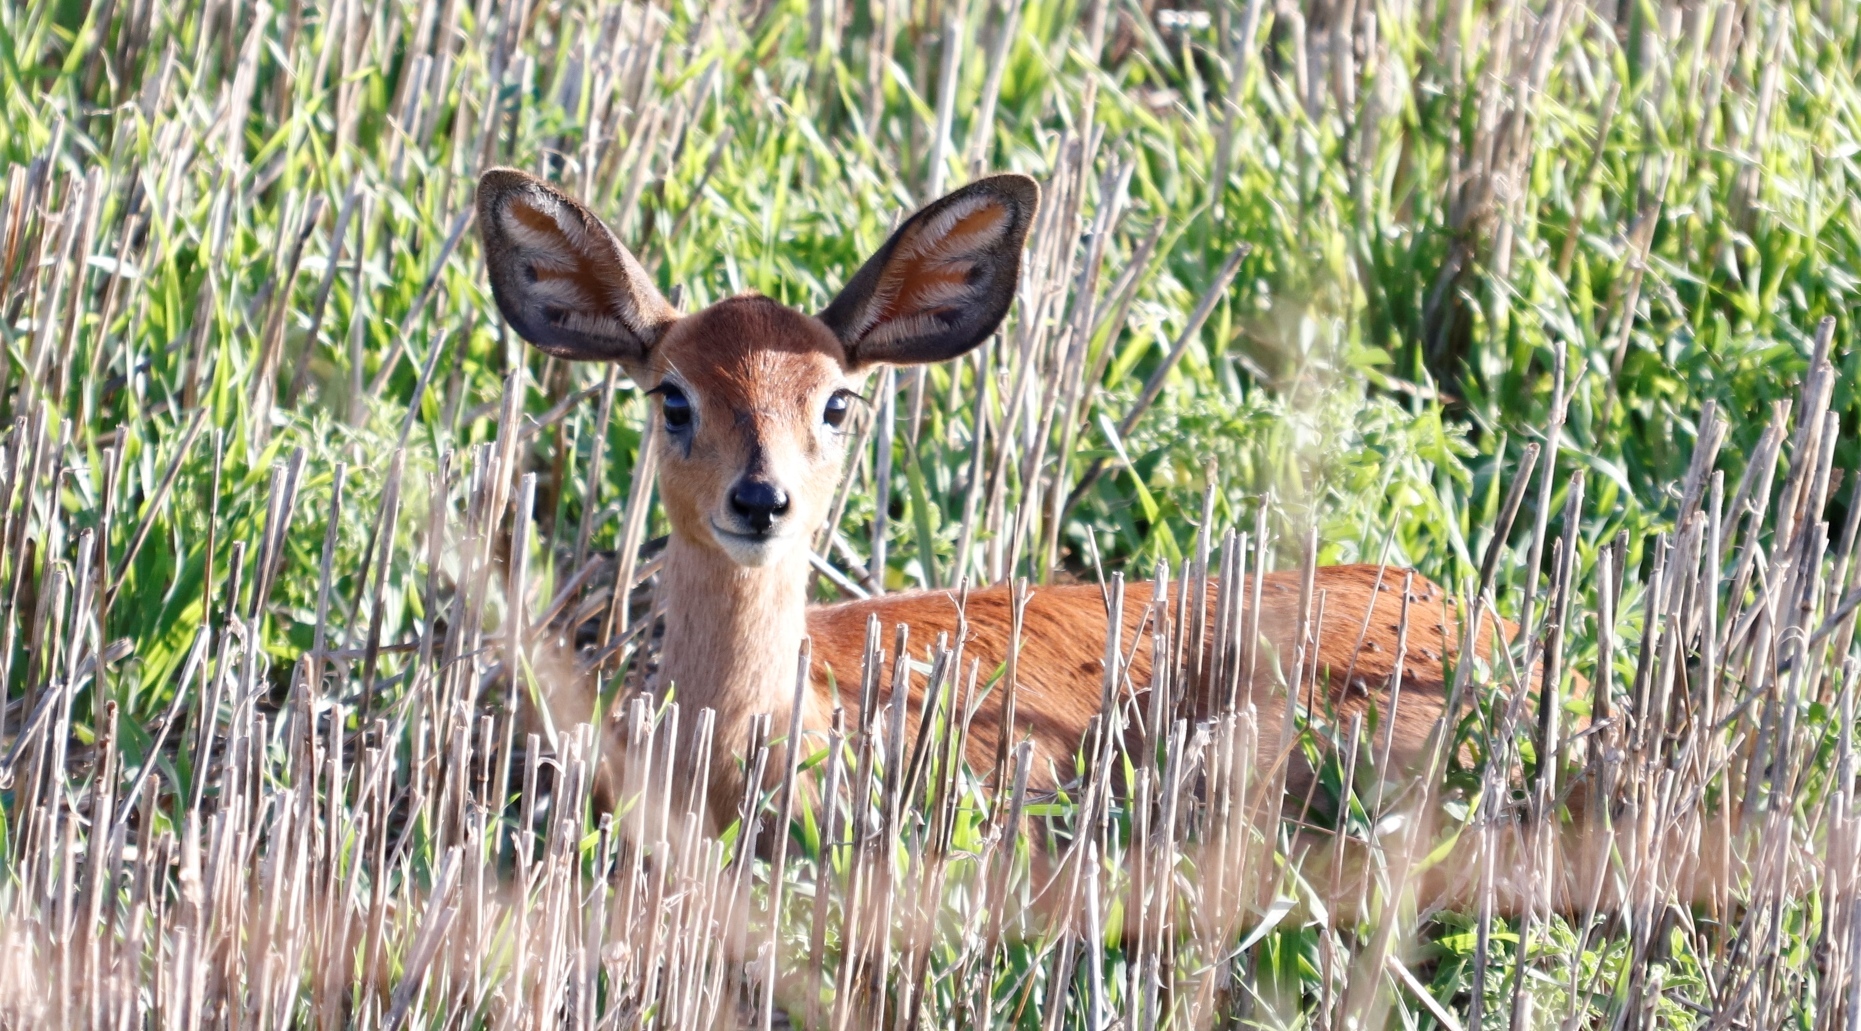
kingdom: Animalia
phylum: Chordata
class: Mammalia
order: Artiodactyla
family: Bovidae
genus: Raphicerus
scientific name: Raphicerus campestris
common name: Steenbok
